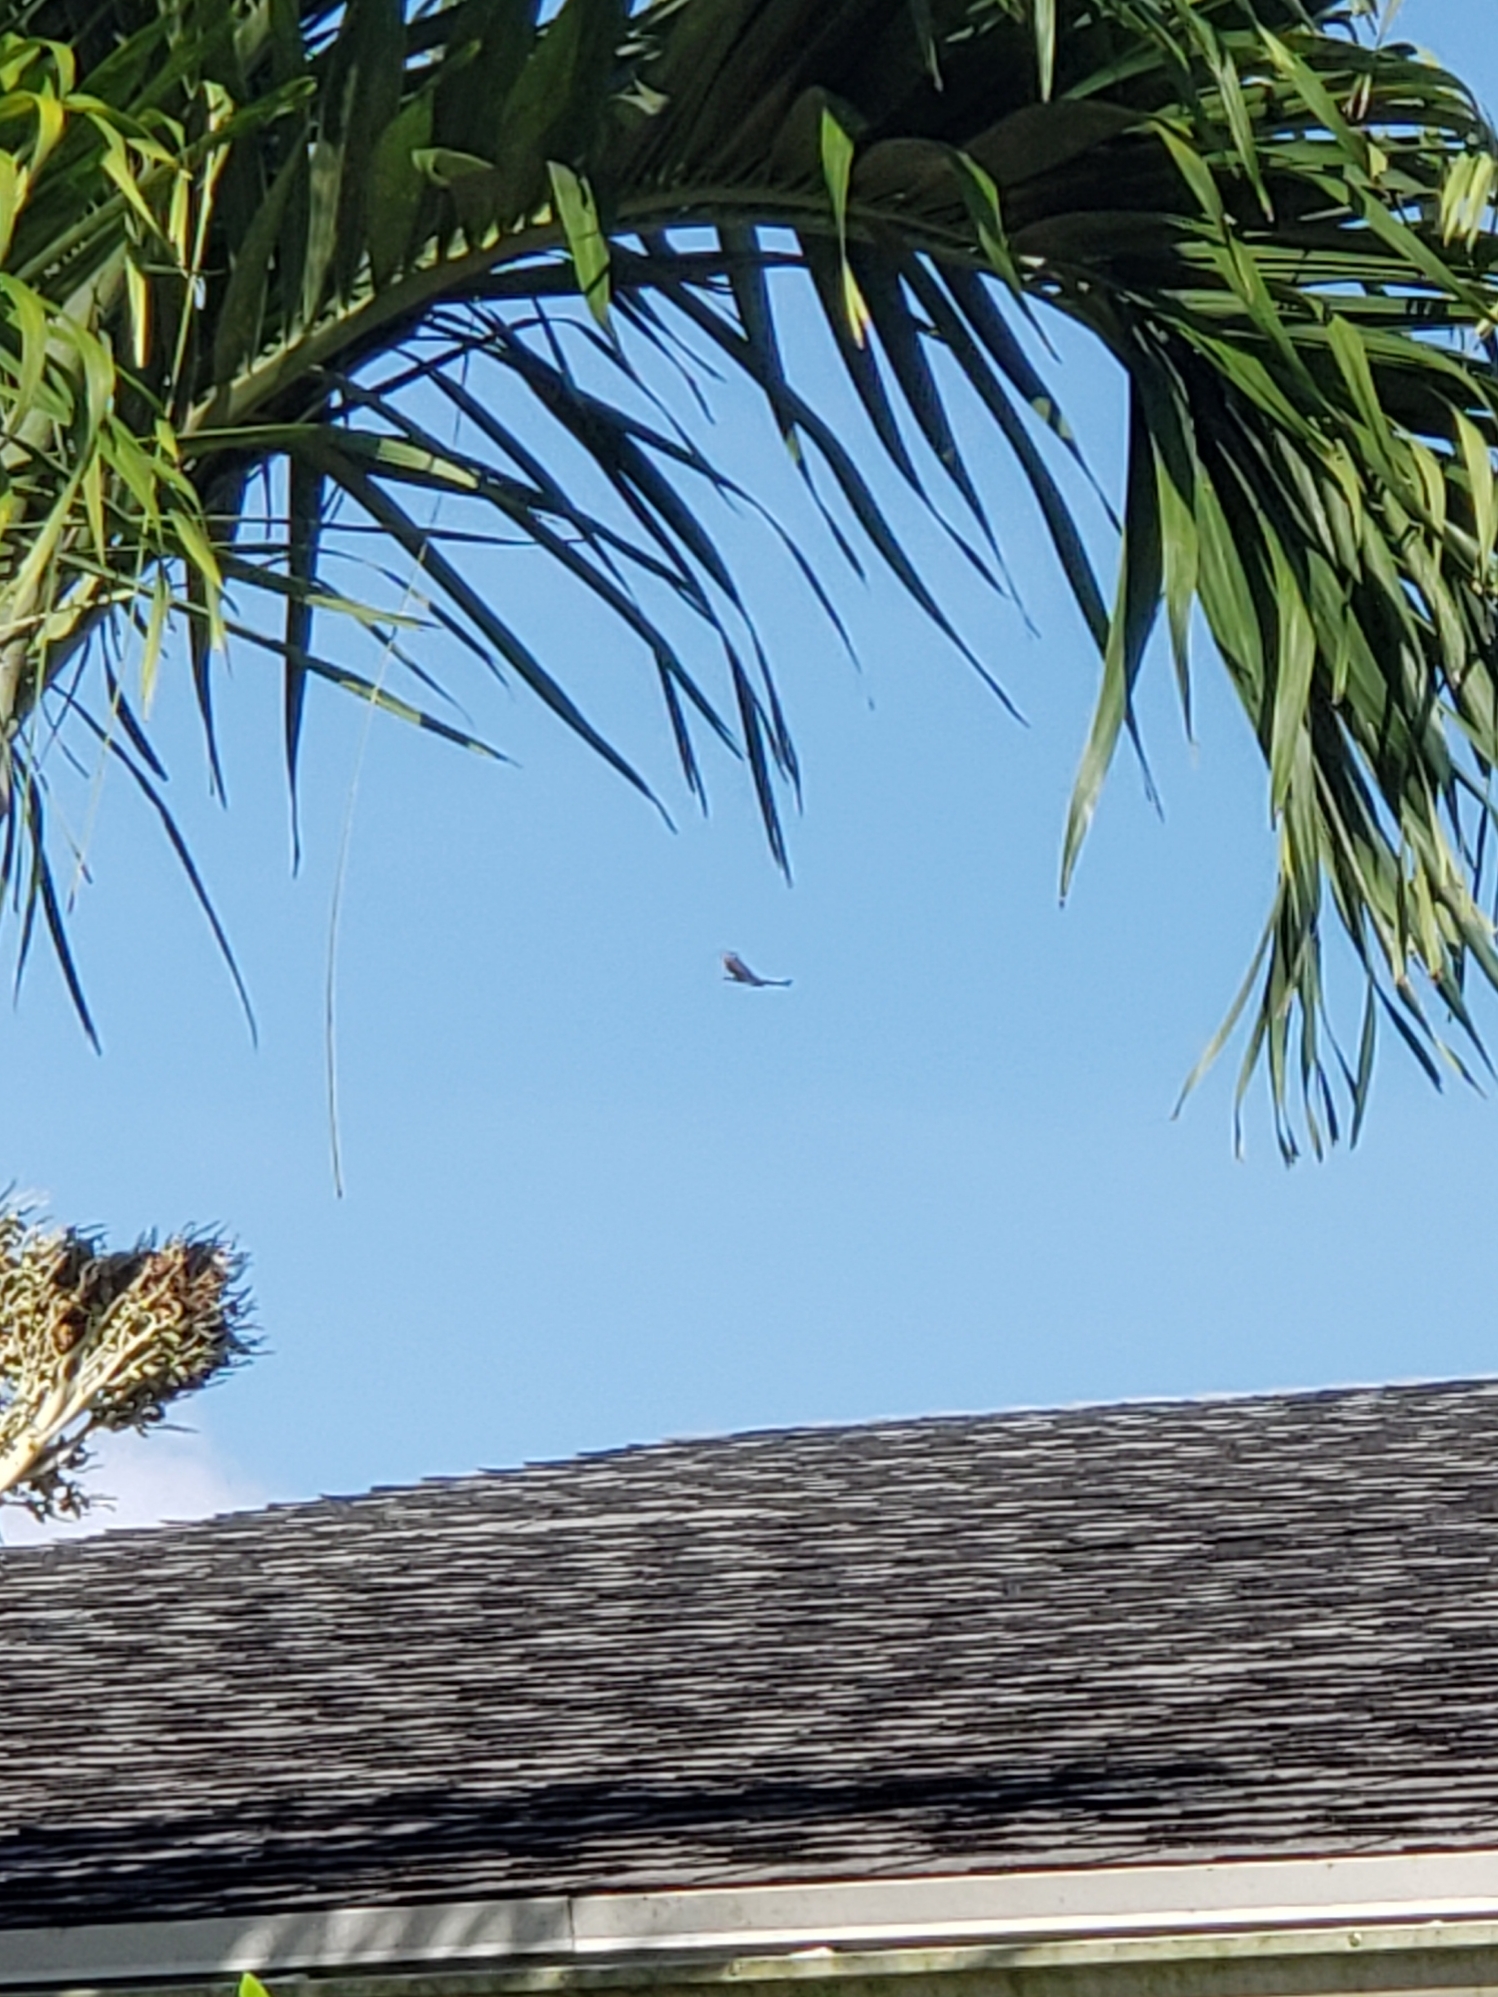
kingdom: Animalia
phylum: Chordata
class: Aves
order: Accipitriformes
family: Cathartidae
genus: Cathartes
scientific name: Cathartes aura
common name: Turkey vulture
